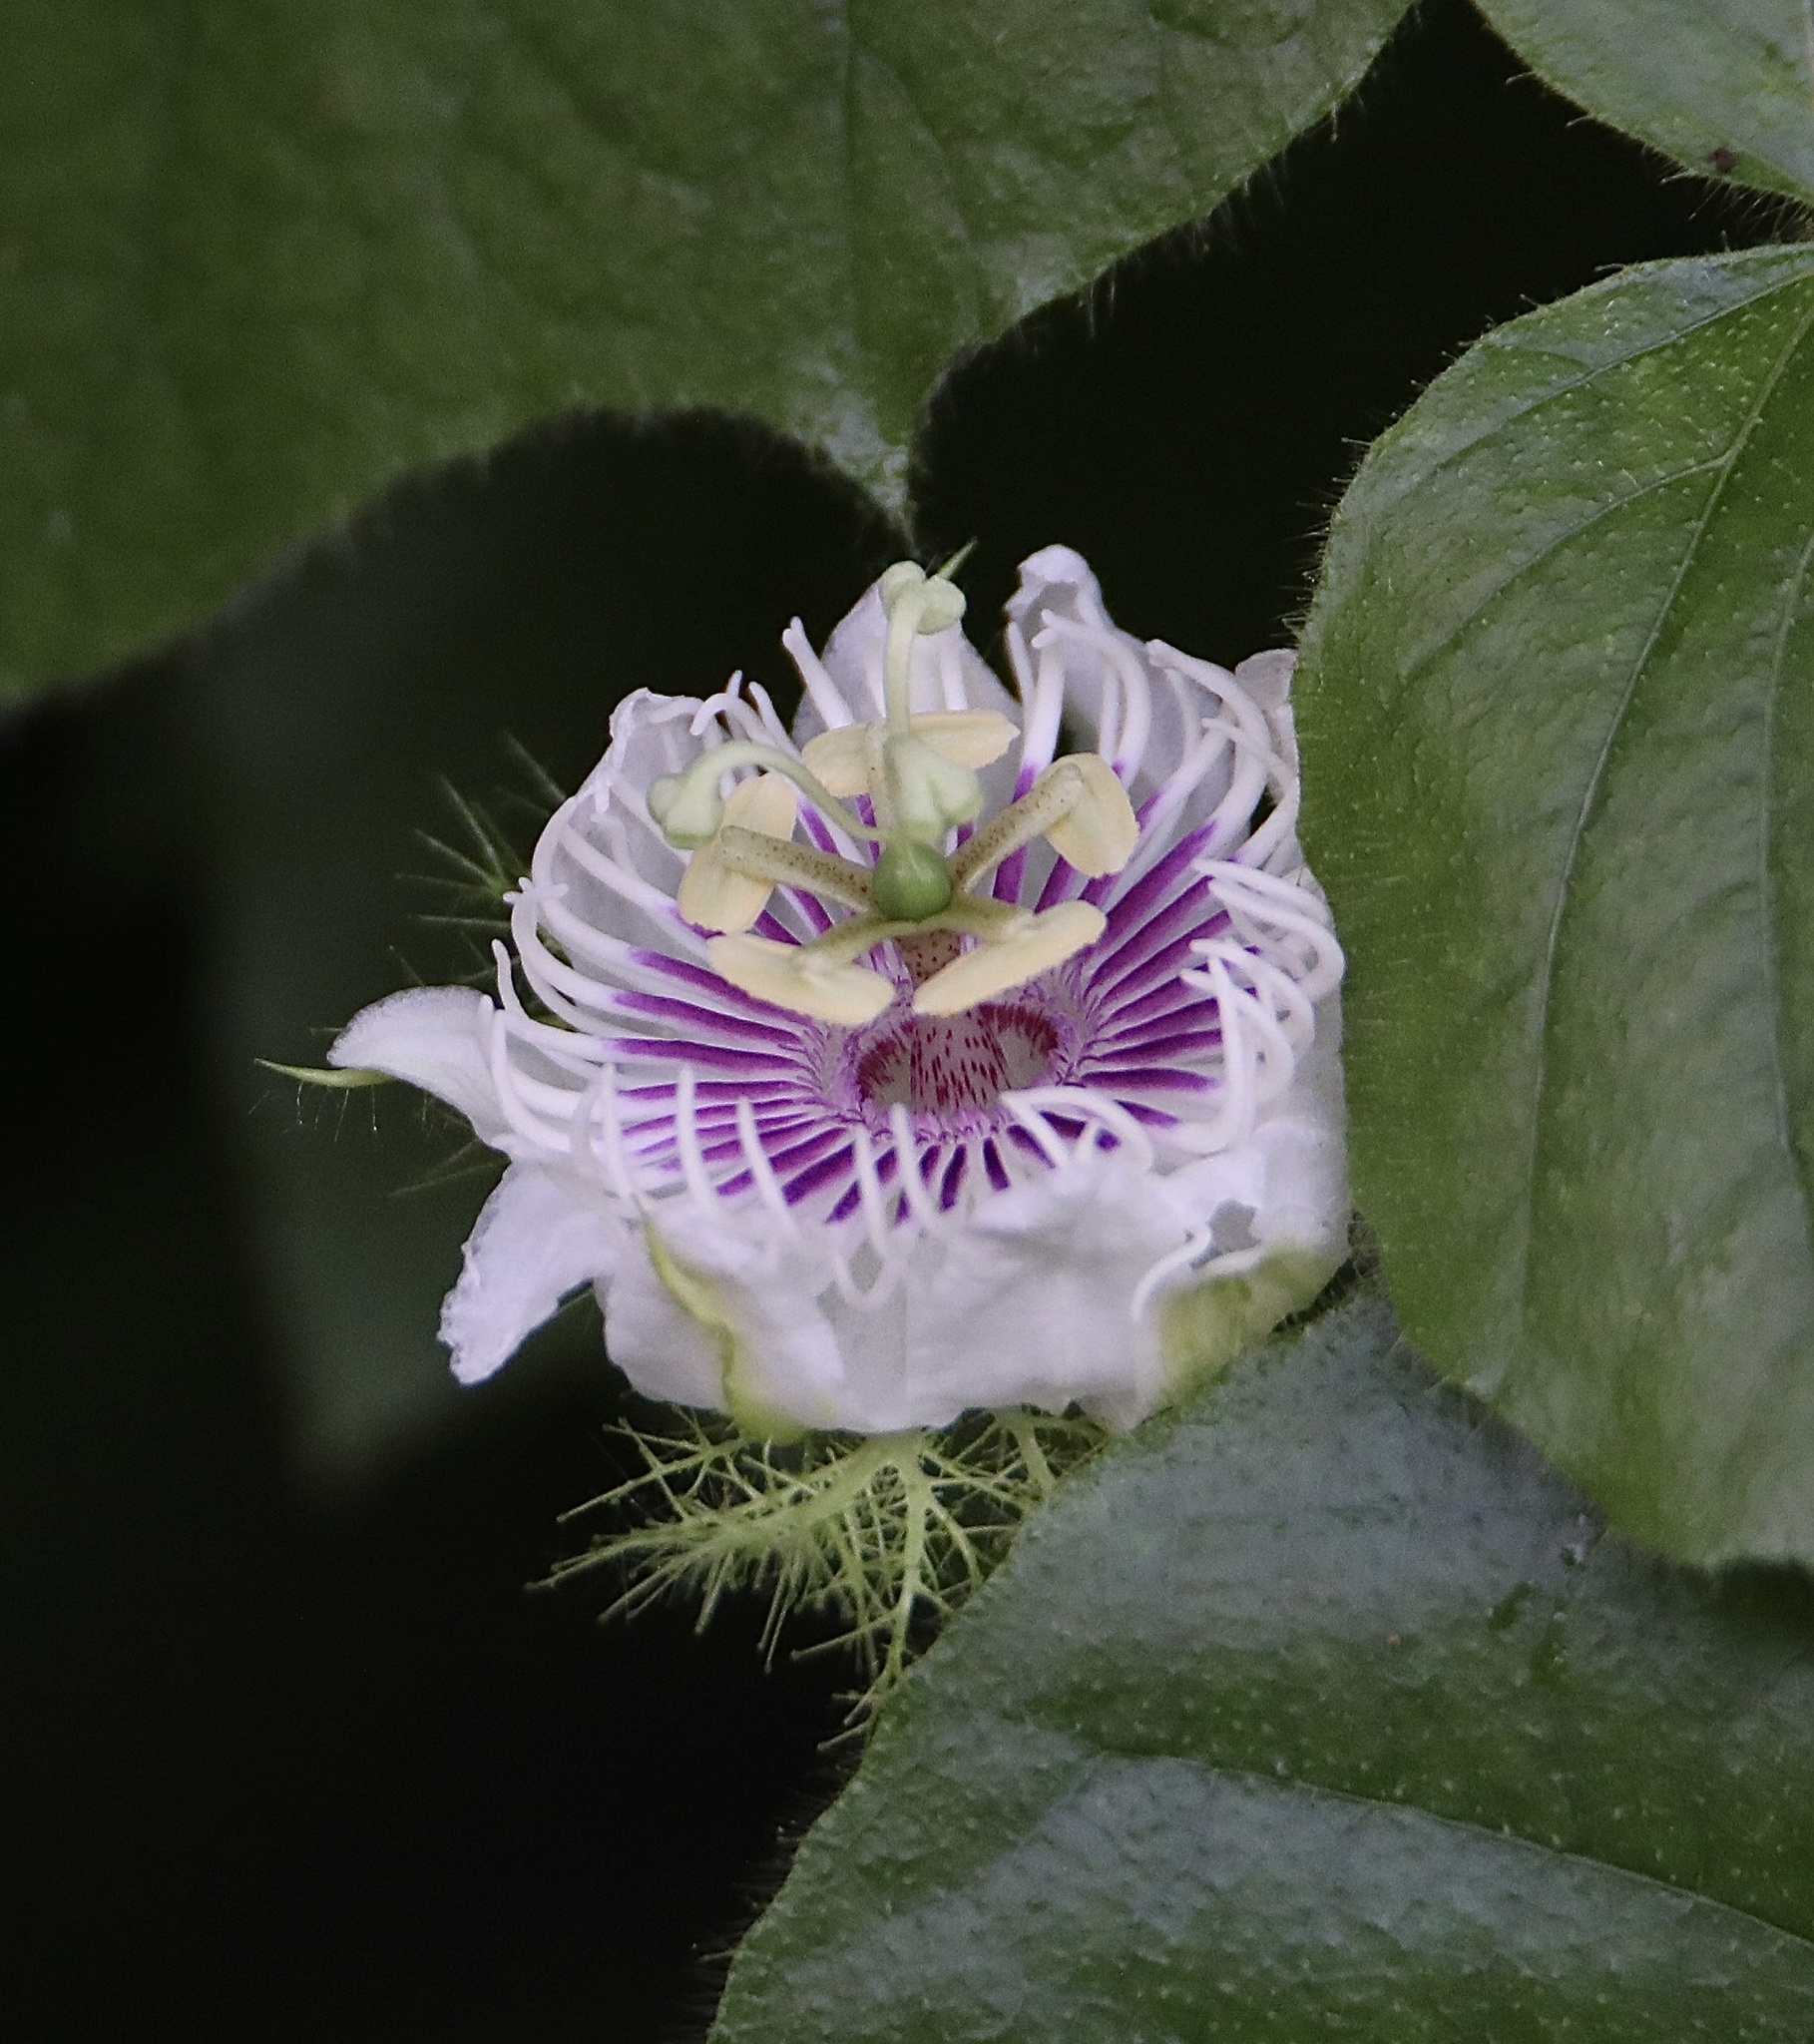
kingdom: Plantae
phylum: Tracheophyta
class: Magnoliopsida
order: Malpighiales
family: Passifloraceae
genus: Passiflora
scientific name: Passiflora foetida
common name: Fetid passionflower
